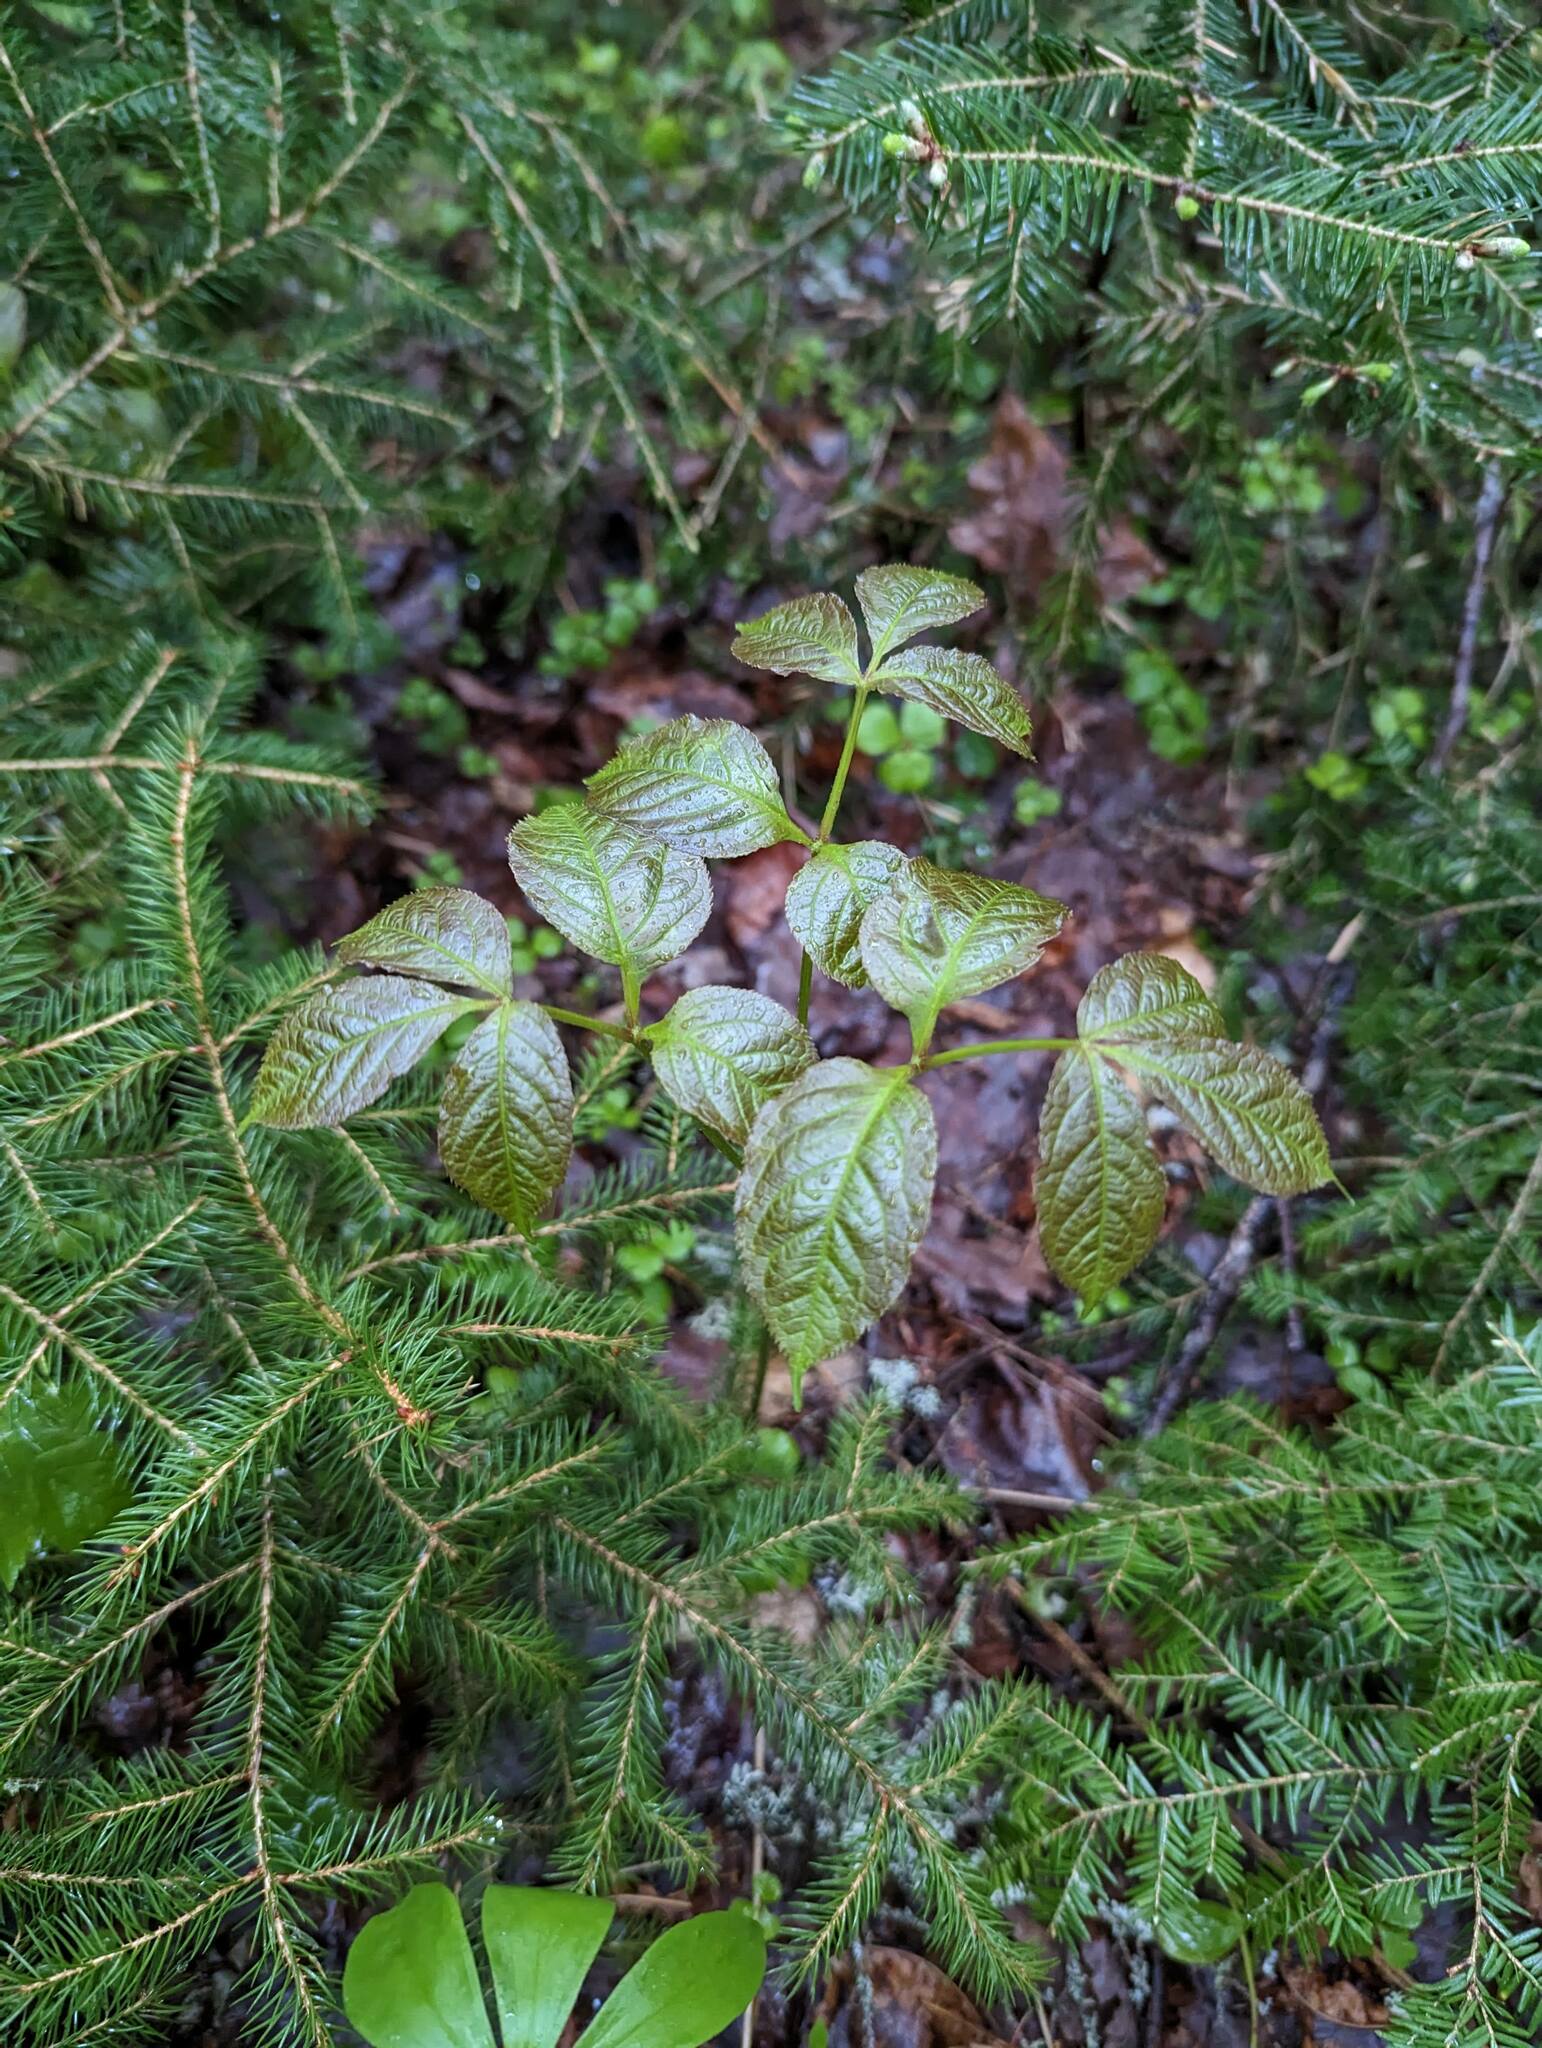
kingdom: Plantae
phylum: Tracheophyta
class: Magnoliopsida
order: Apiales
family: Araliaceae
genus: Aralia
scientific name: Aralia nudicaulis
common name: Wild sarsaparilla
